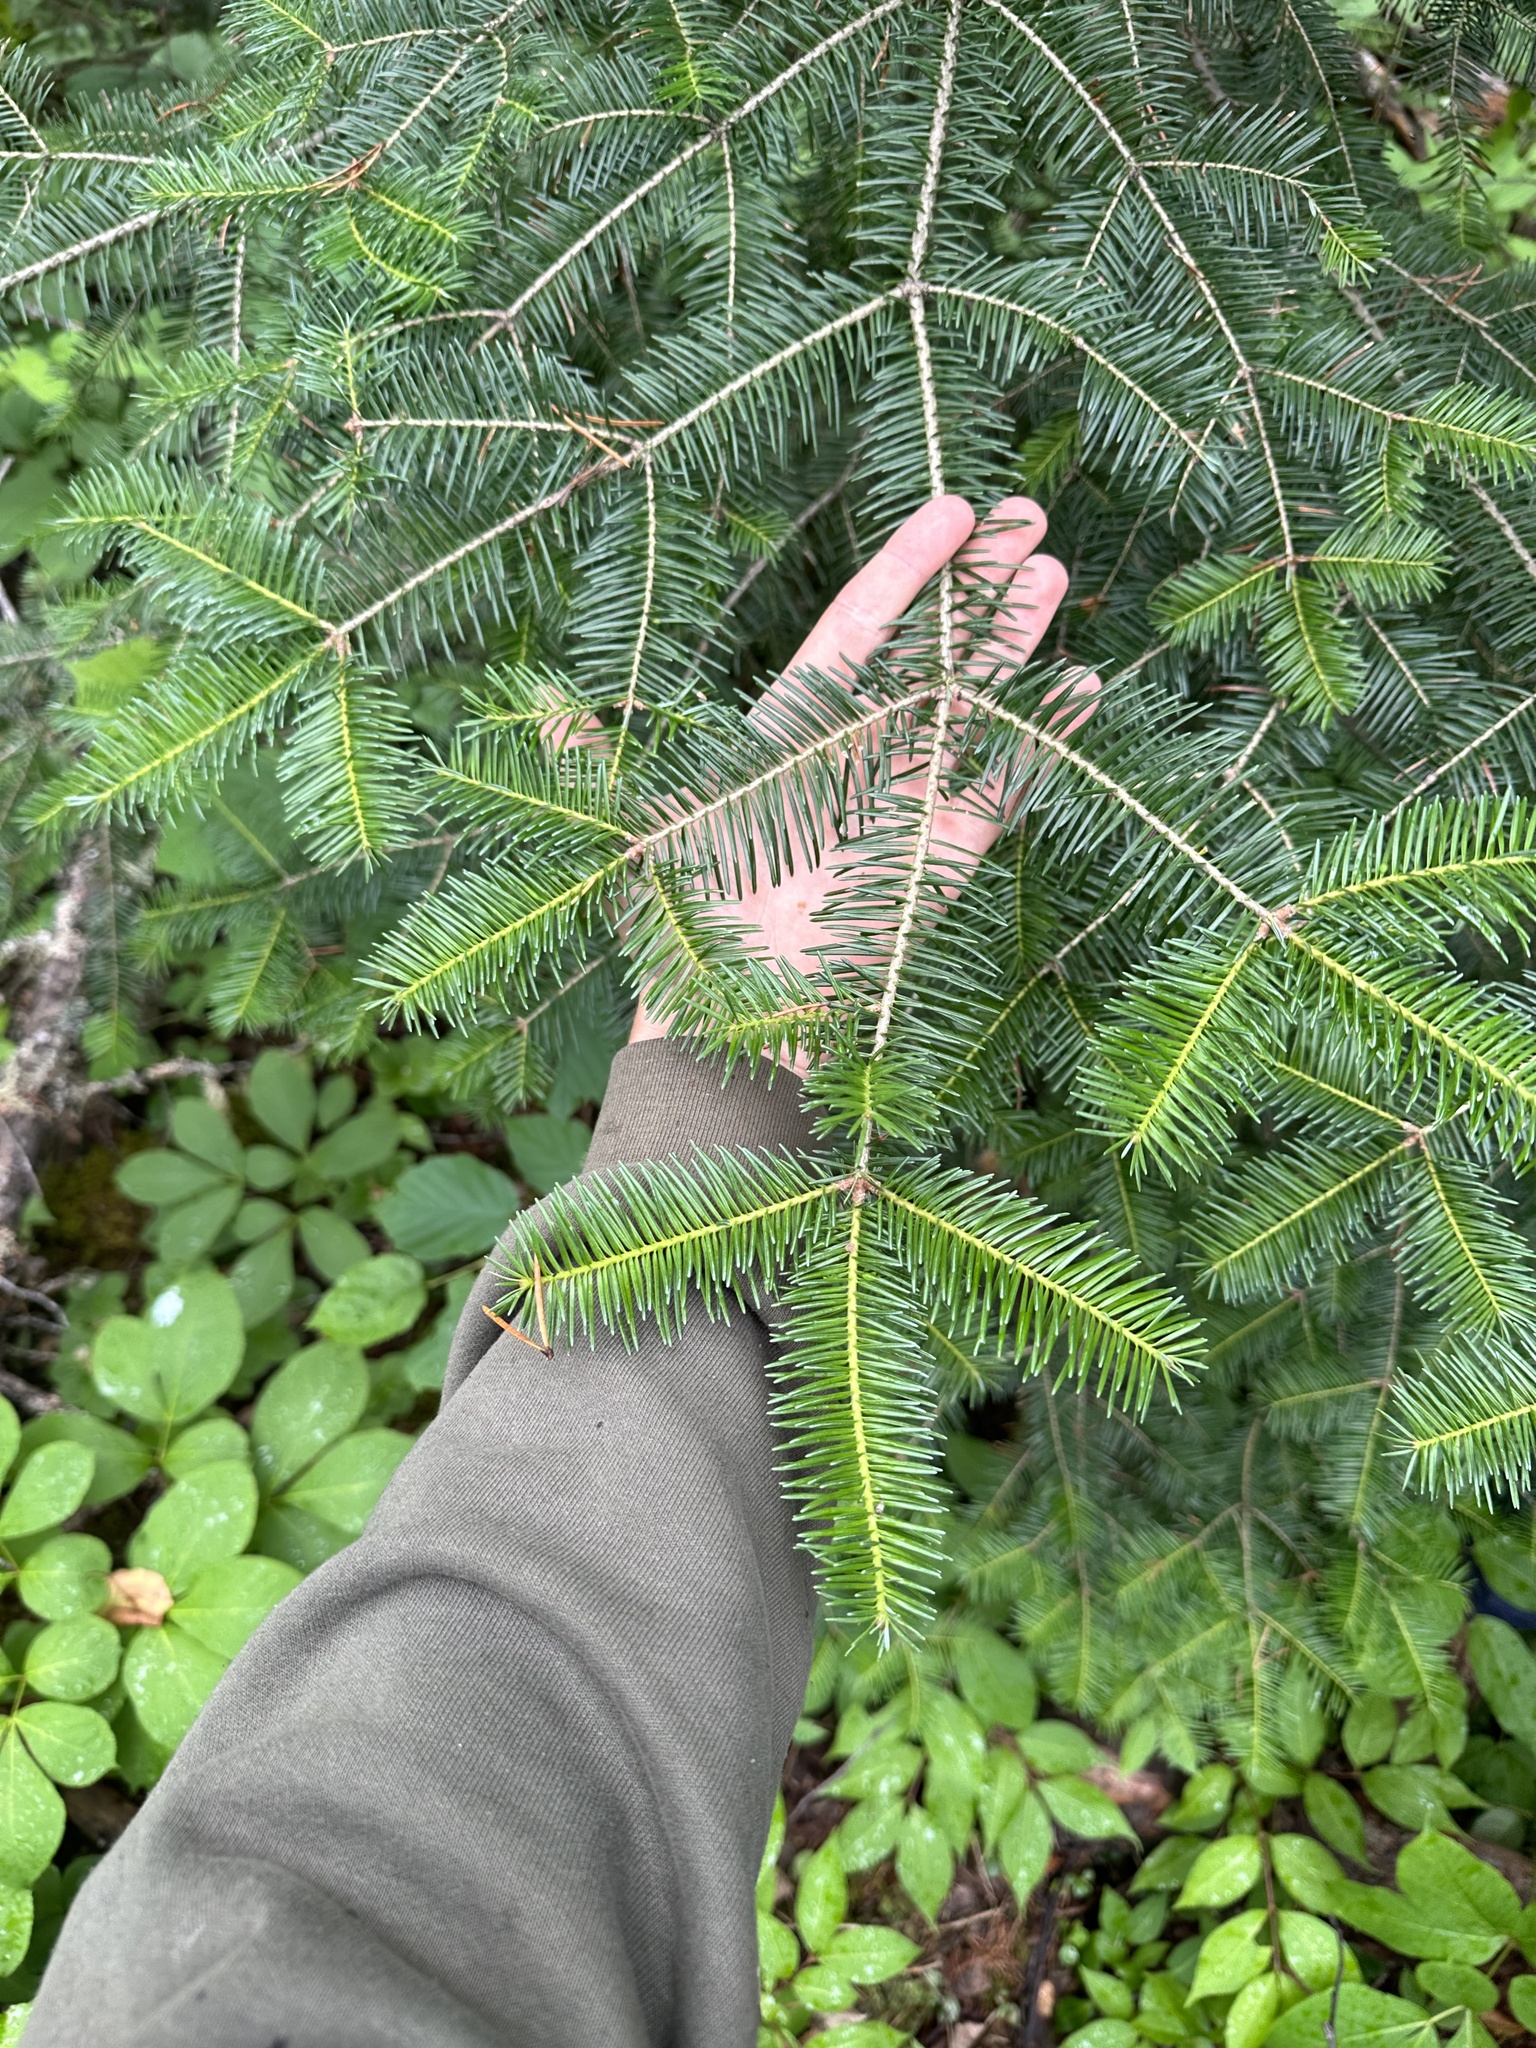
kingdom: Plantae
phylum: Tracheophyta
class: Pinopsida
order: Pinales
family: Pinaceae
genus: Abies
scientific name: Abies balsamea
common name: Balsam fir
